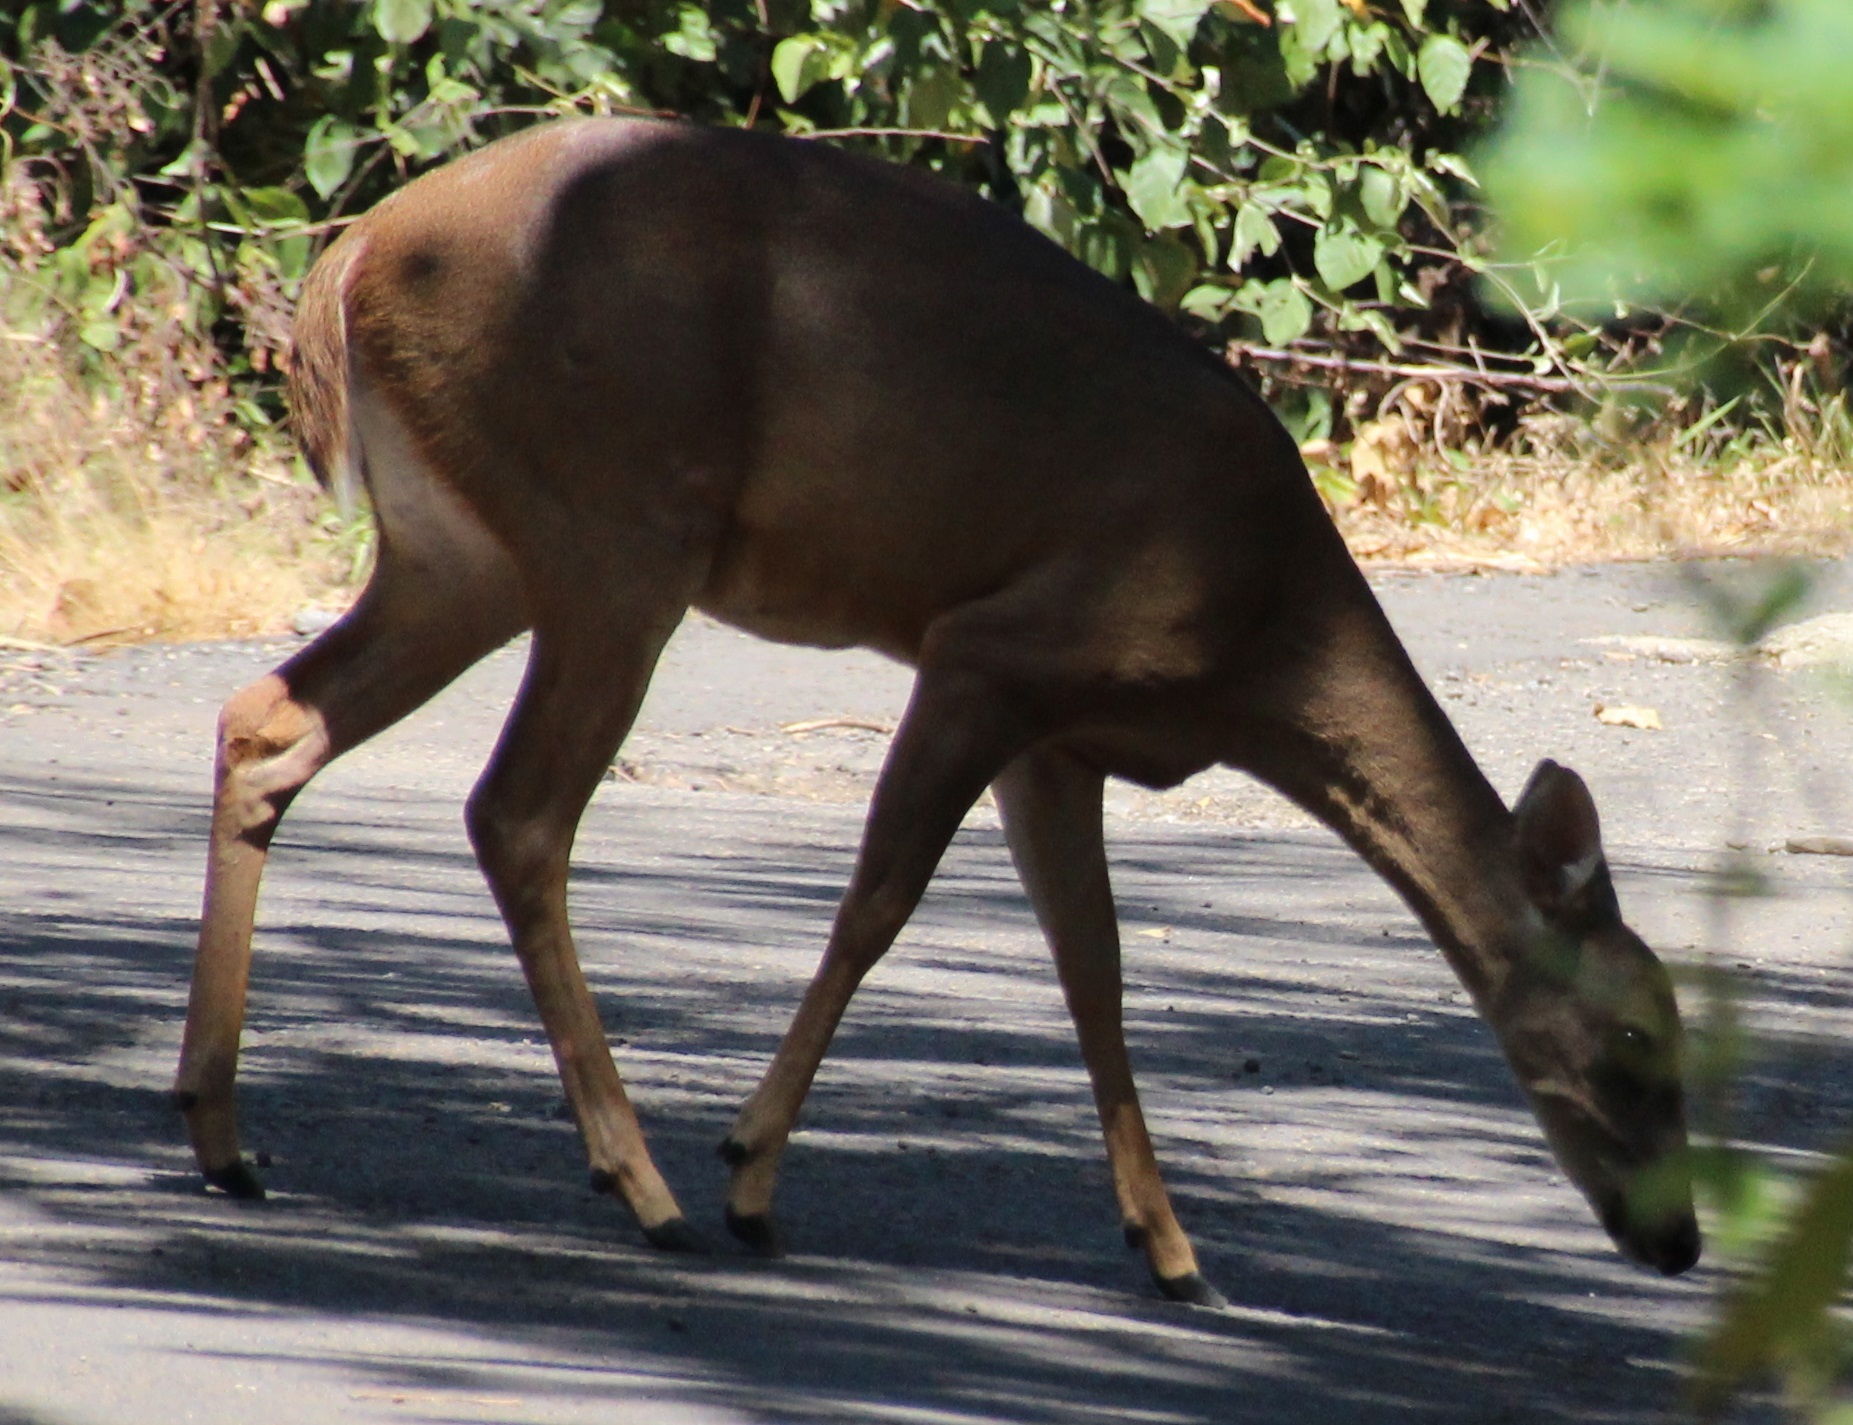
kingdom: Animalia
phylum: Chordata
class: Mammalia
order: Artiodactyla
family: Cervidae
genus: Odocoileus
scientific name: Odocoileus virginianus
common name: White-tailed deer
